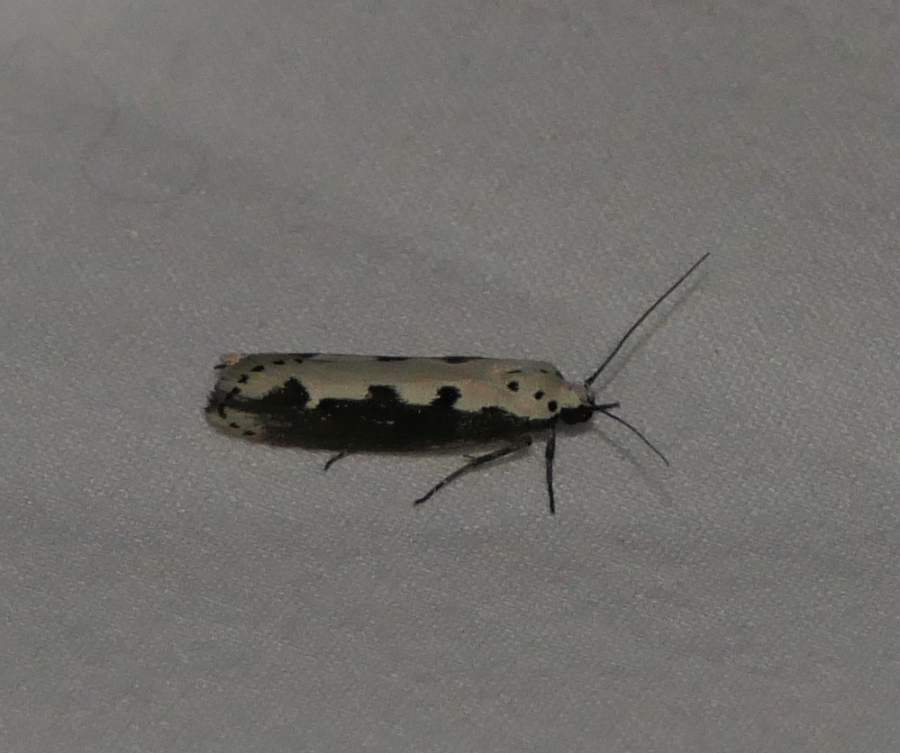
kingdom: Animalia
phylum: Arthropoda
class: Insecta
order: Lepidoptera
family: Ethmiidae
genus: Ethmia
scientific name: Ethmia bipunctella
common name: Bordered ermel
